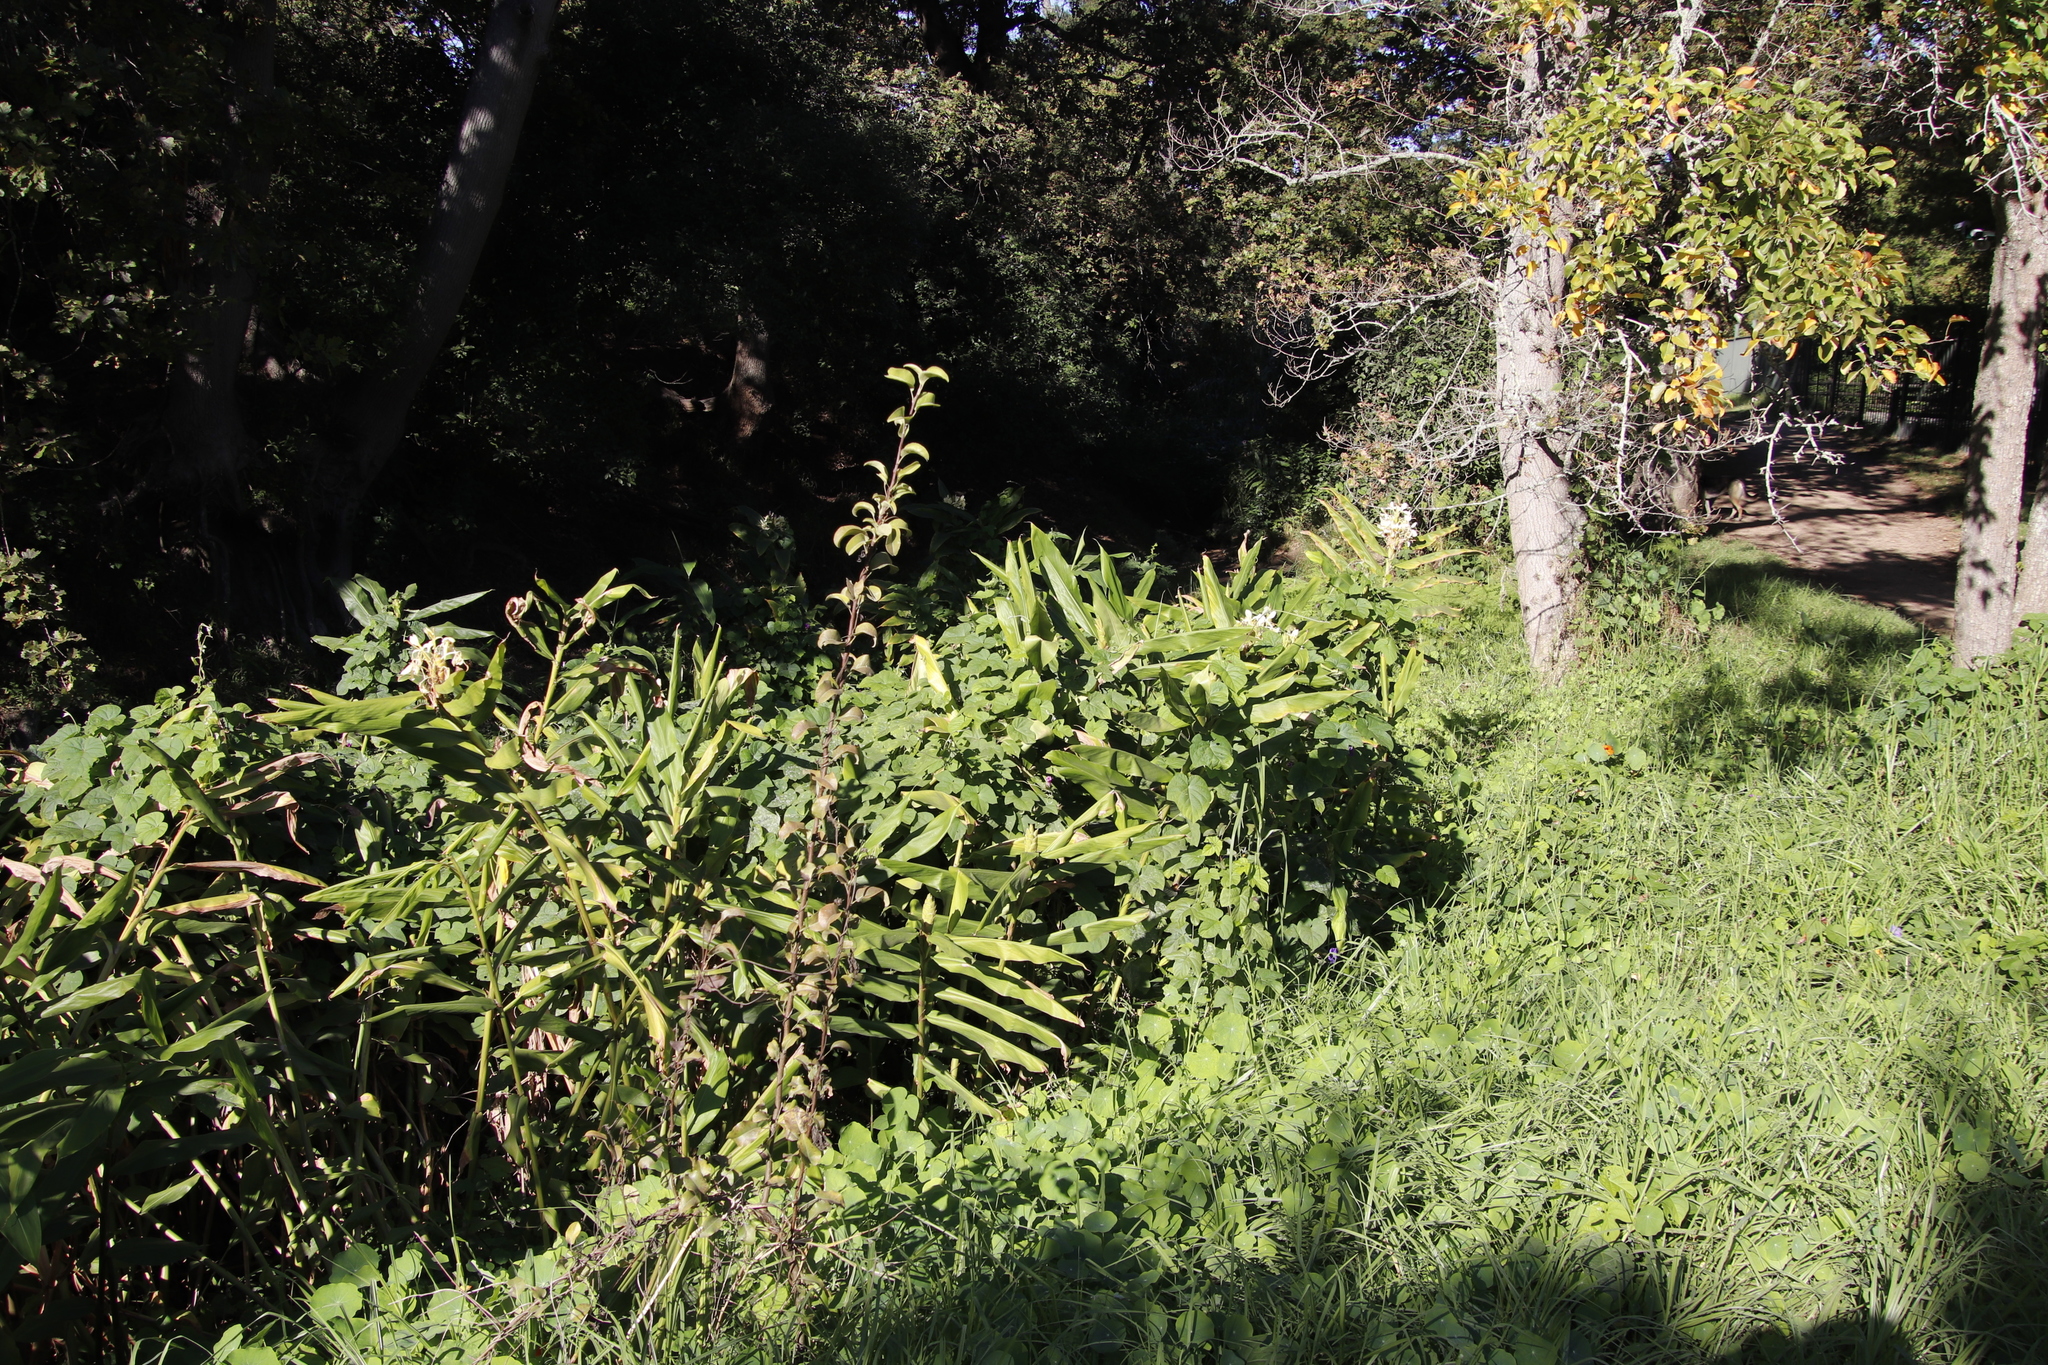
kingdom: Plantae
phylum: Tracheophyta
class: Liliopsida
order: Zingiberales
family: Zingiberaceae
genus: Hedychium
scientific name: Hedychium flavescens
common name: Yellow ginger
